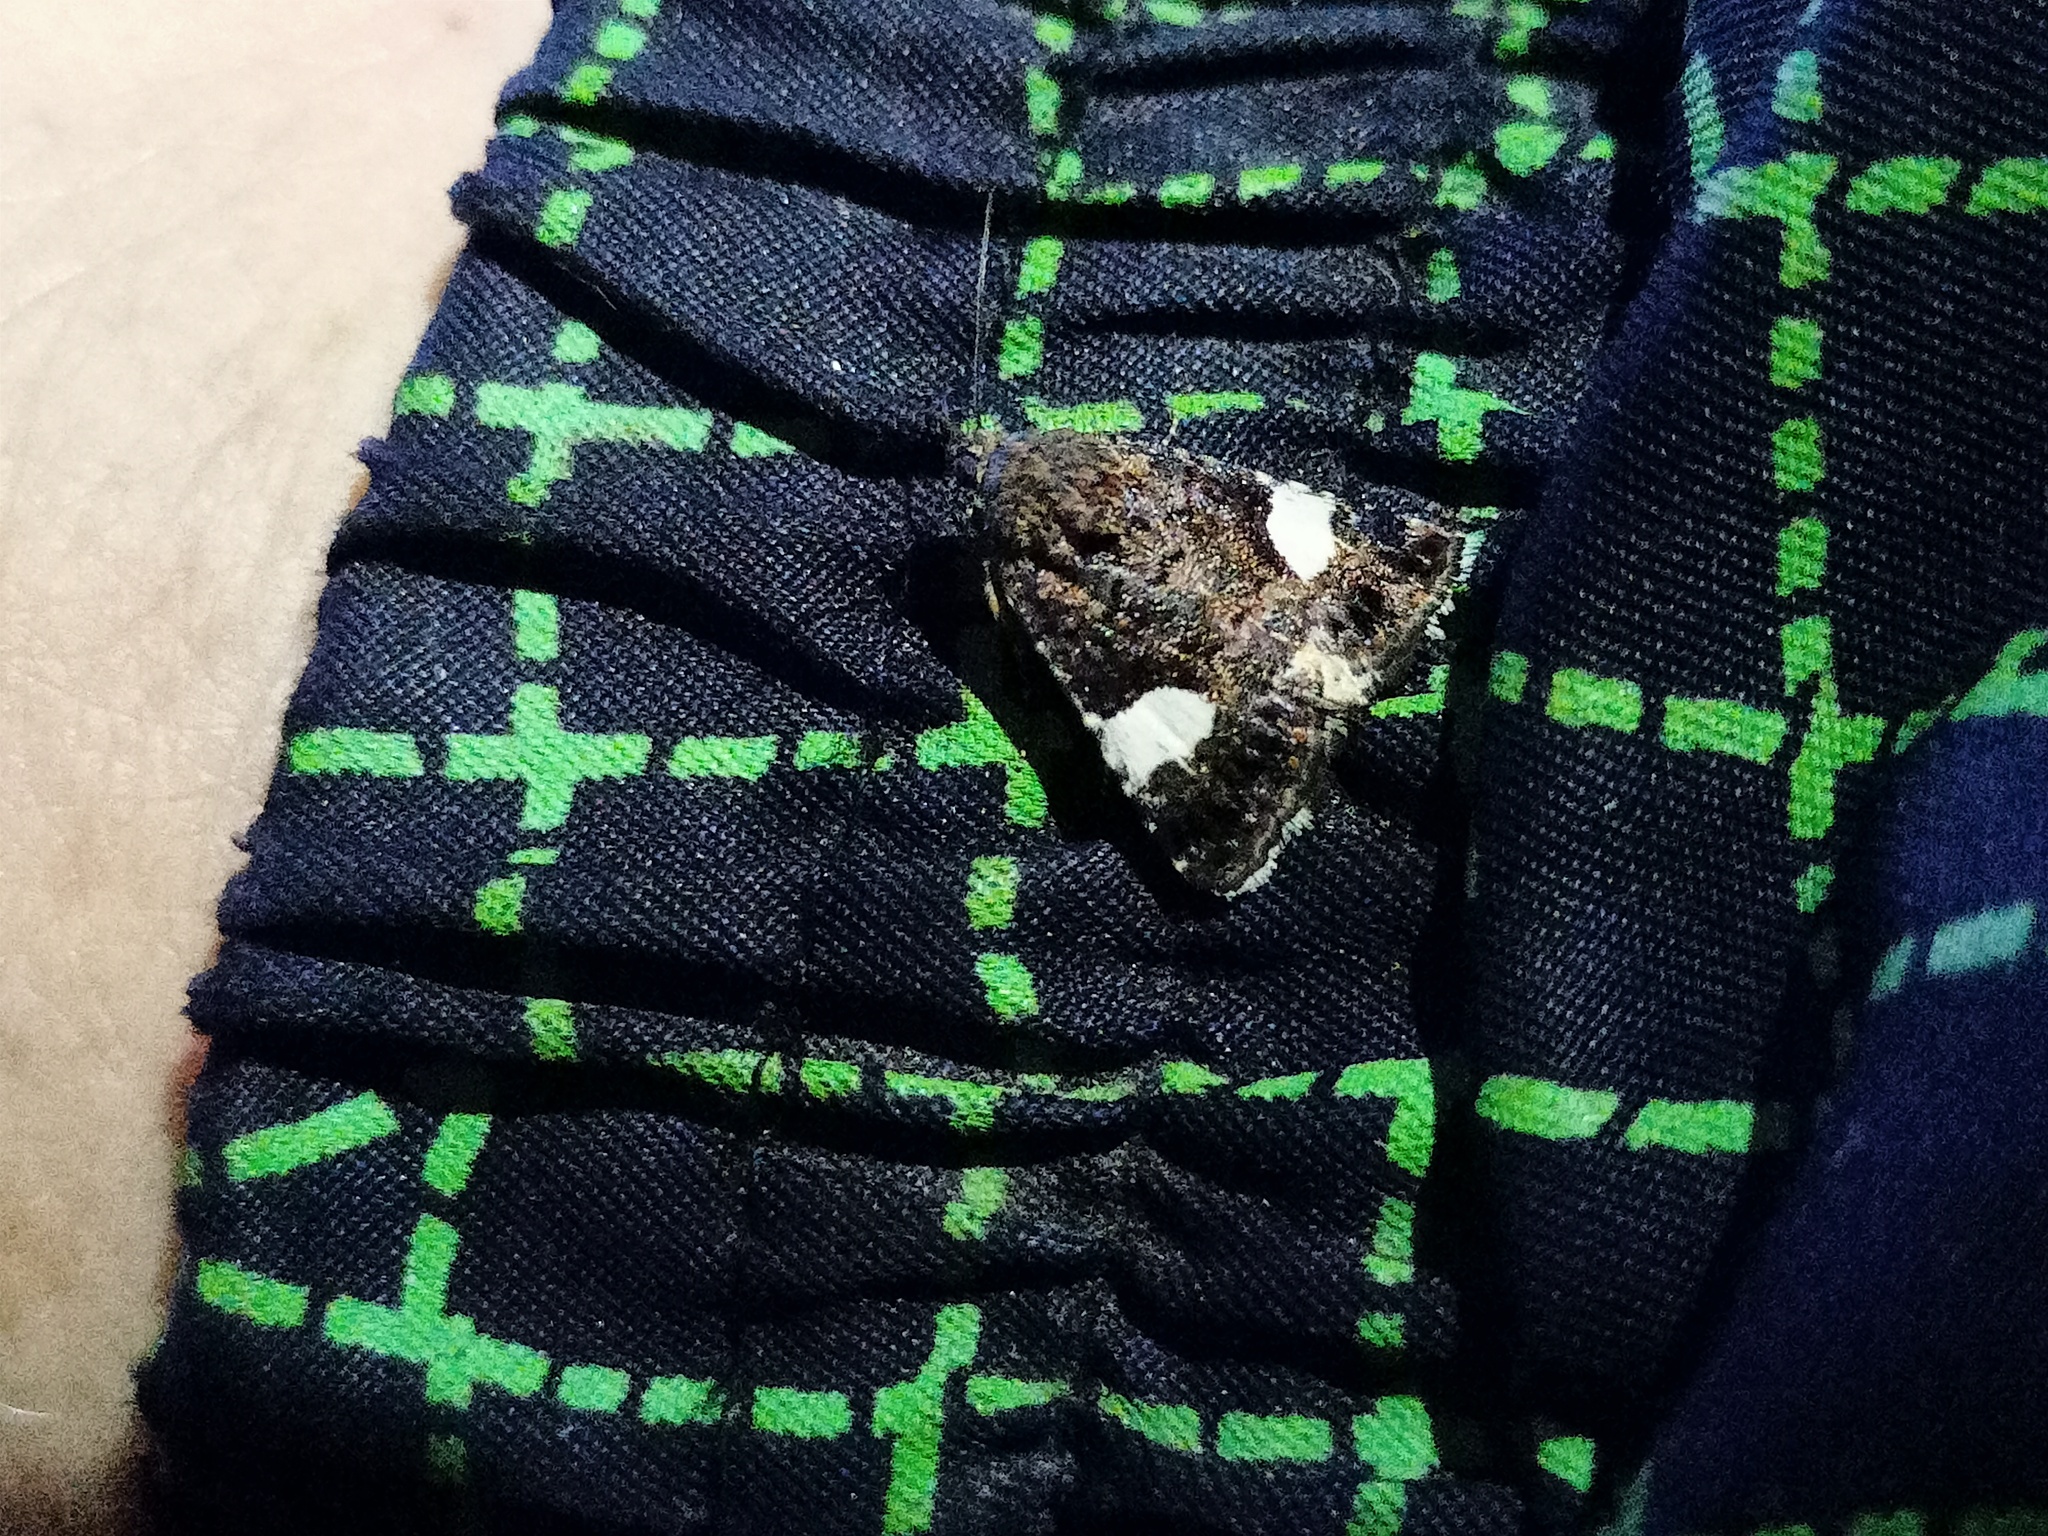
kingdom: Animalia
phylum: Arthropoda
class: Insecta
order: Lepidoptera
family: Erebidae
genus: Tyta
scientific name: Tyta luctuosa
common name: Four-spotted
